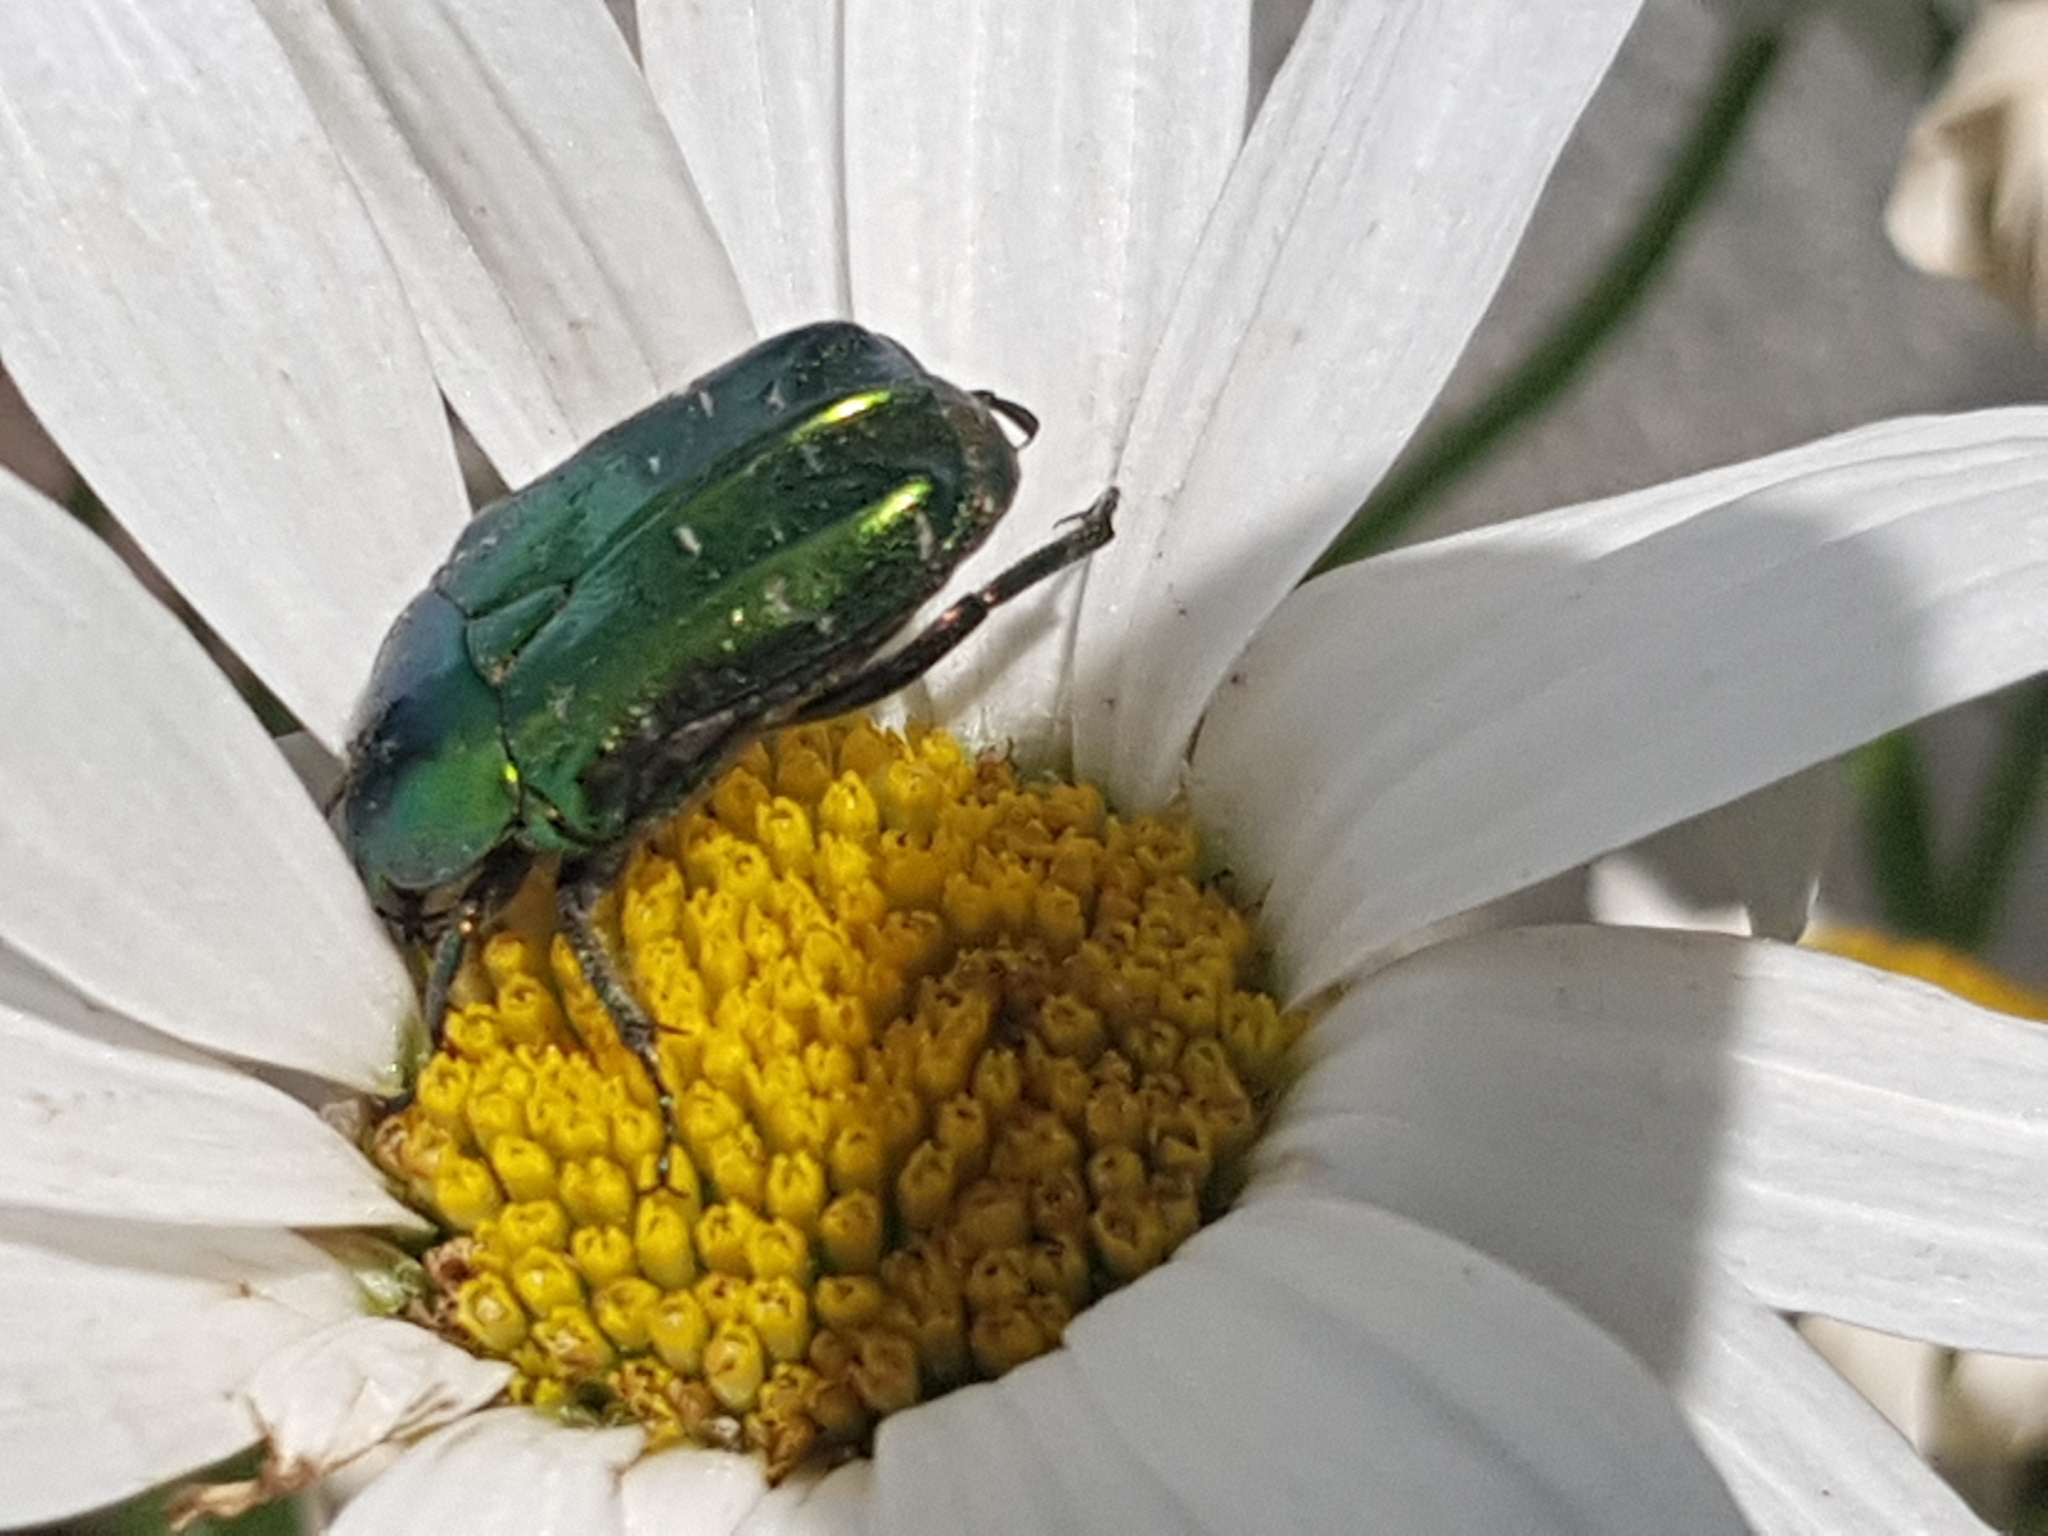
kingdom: Animalia
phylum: Arthropoda
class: Insecta
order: Coleoptera
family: Scarabaeidae
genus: Cetonia
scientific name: Cetonia aurata
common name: Rose chafer
